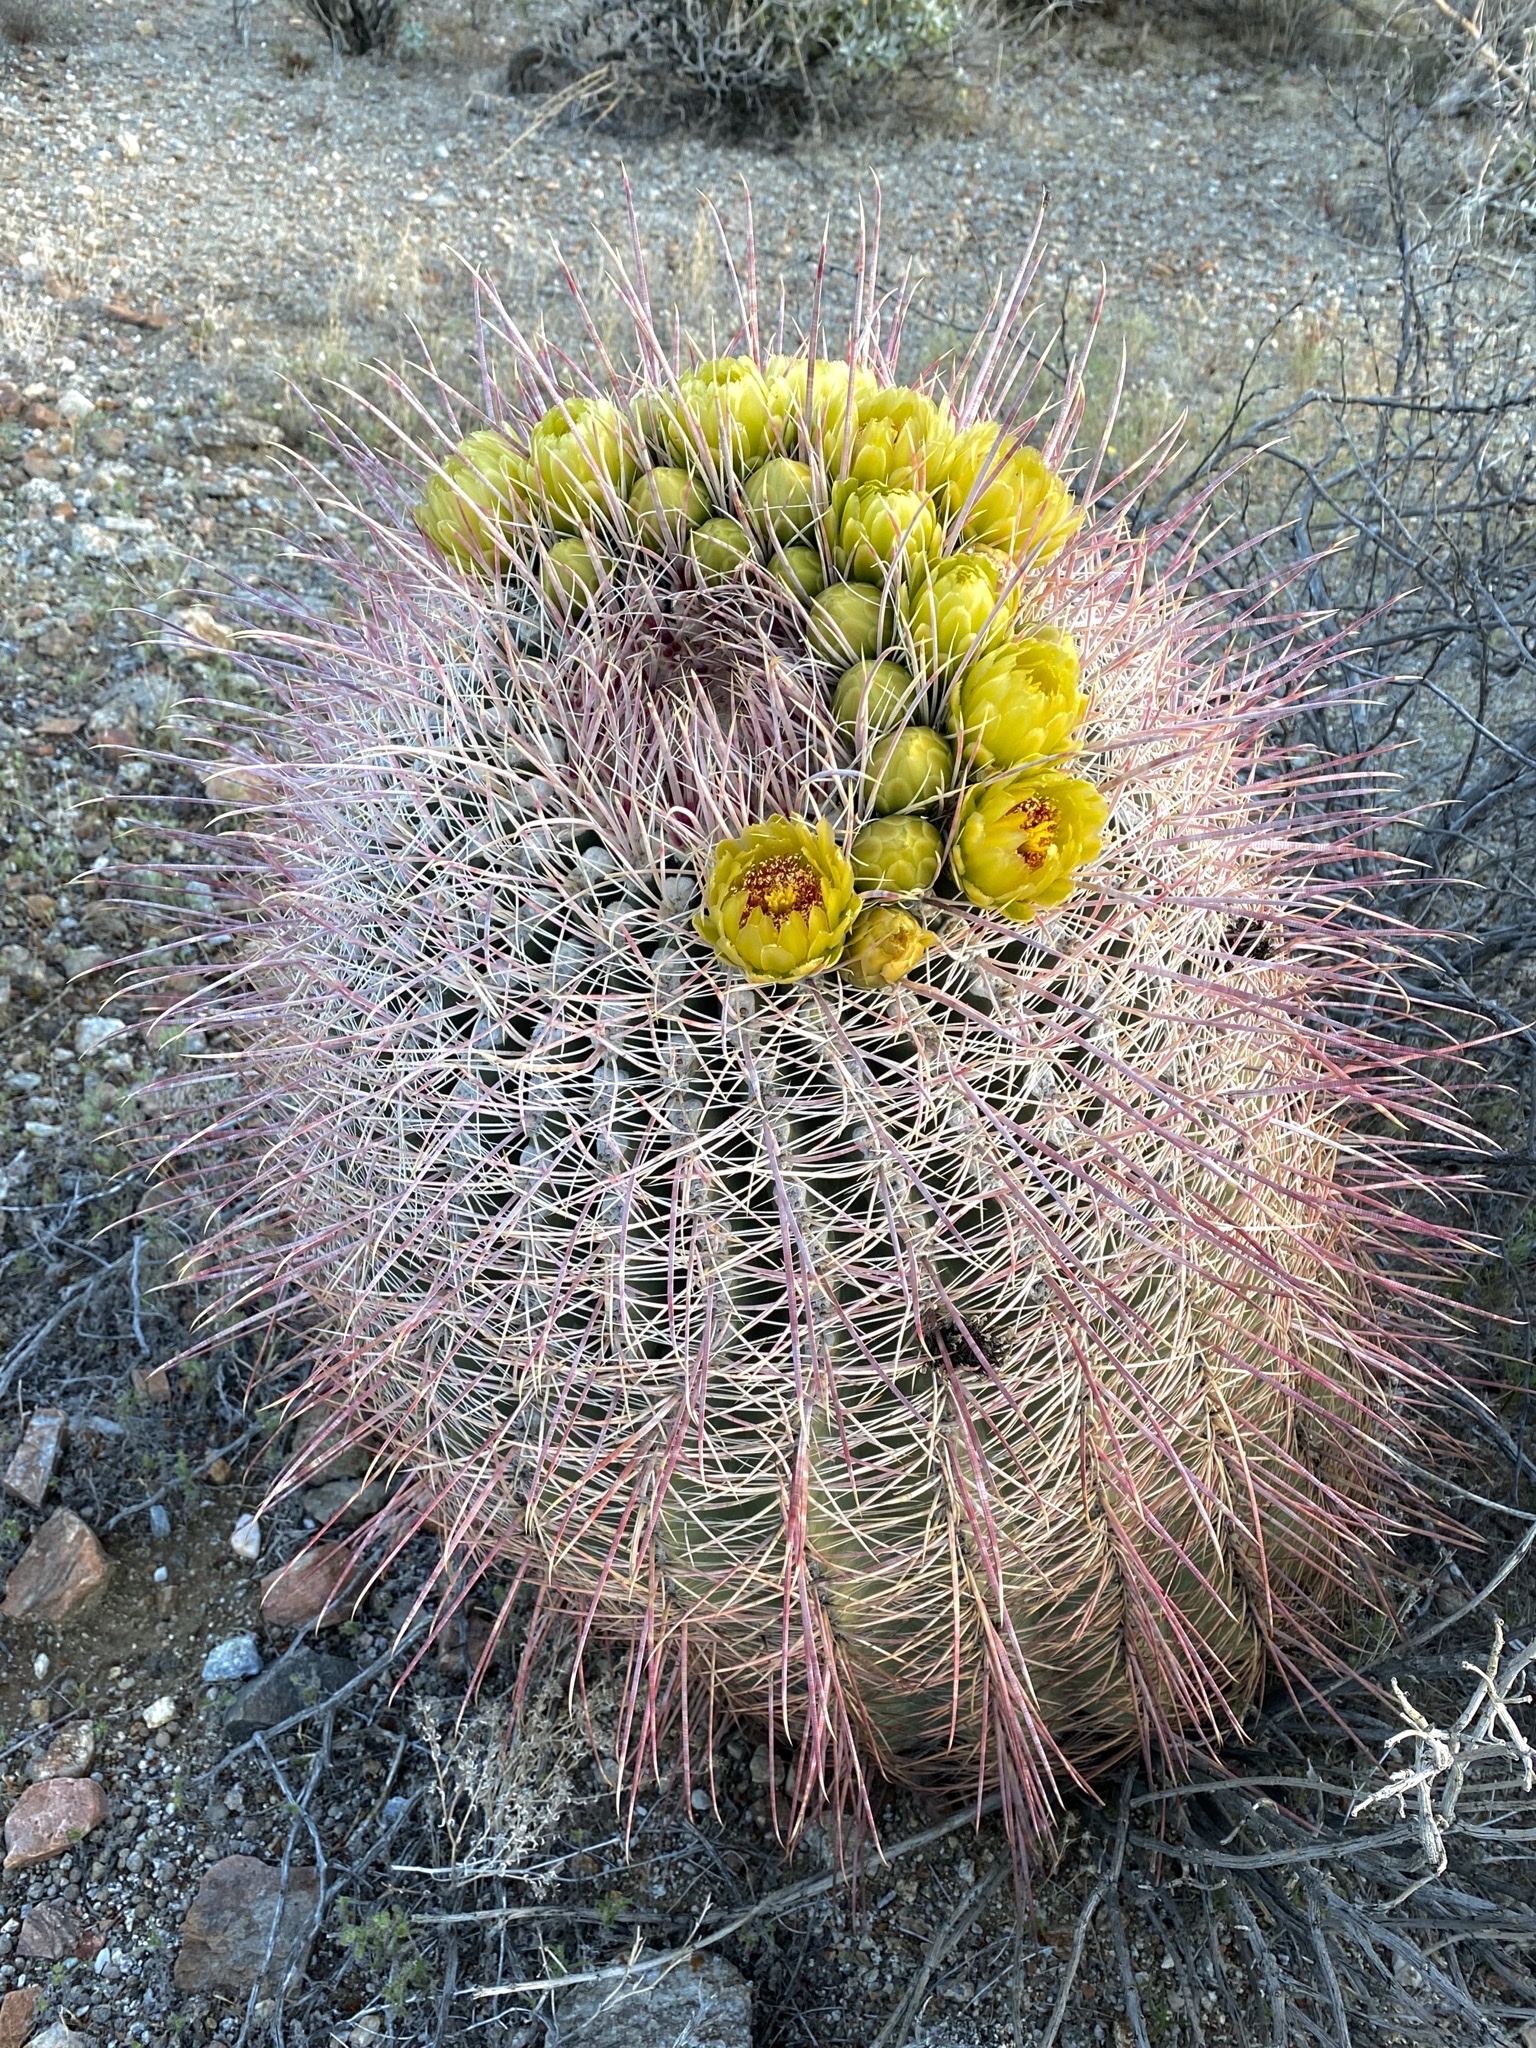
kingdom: Plantae
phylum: Tracheophyta
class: Magnoliopsida
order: Caryophyllales
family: Cactaceae
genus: Ferocactus
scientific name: Ferocactus cylindraceus
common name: California barrel cactus
